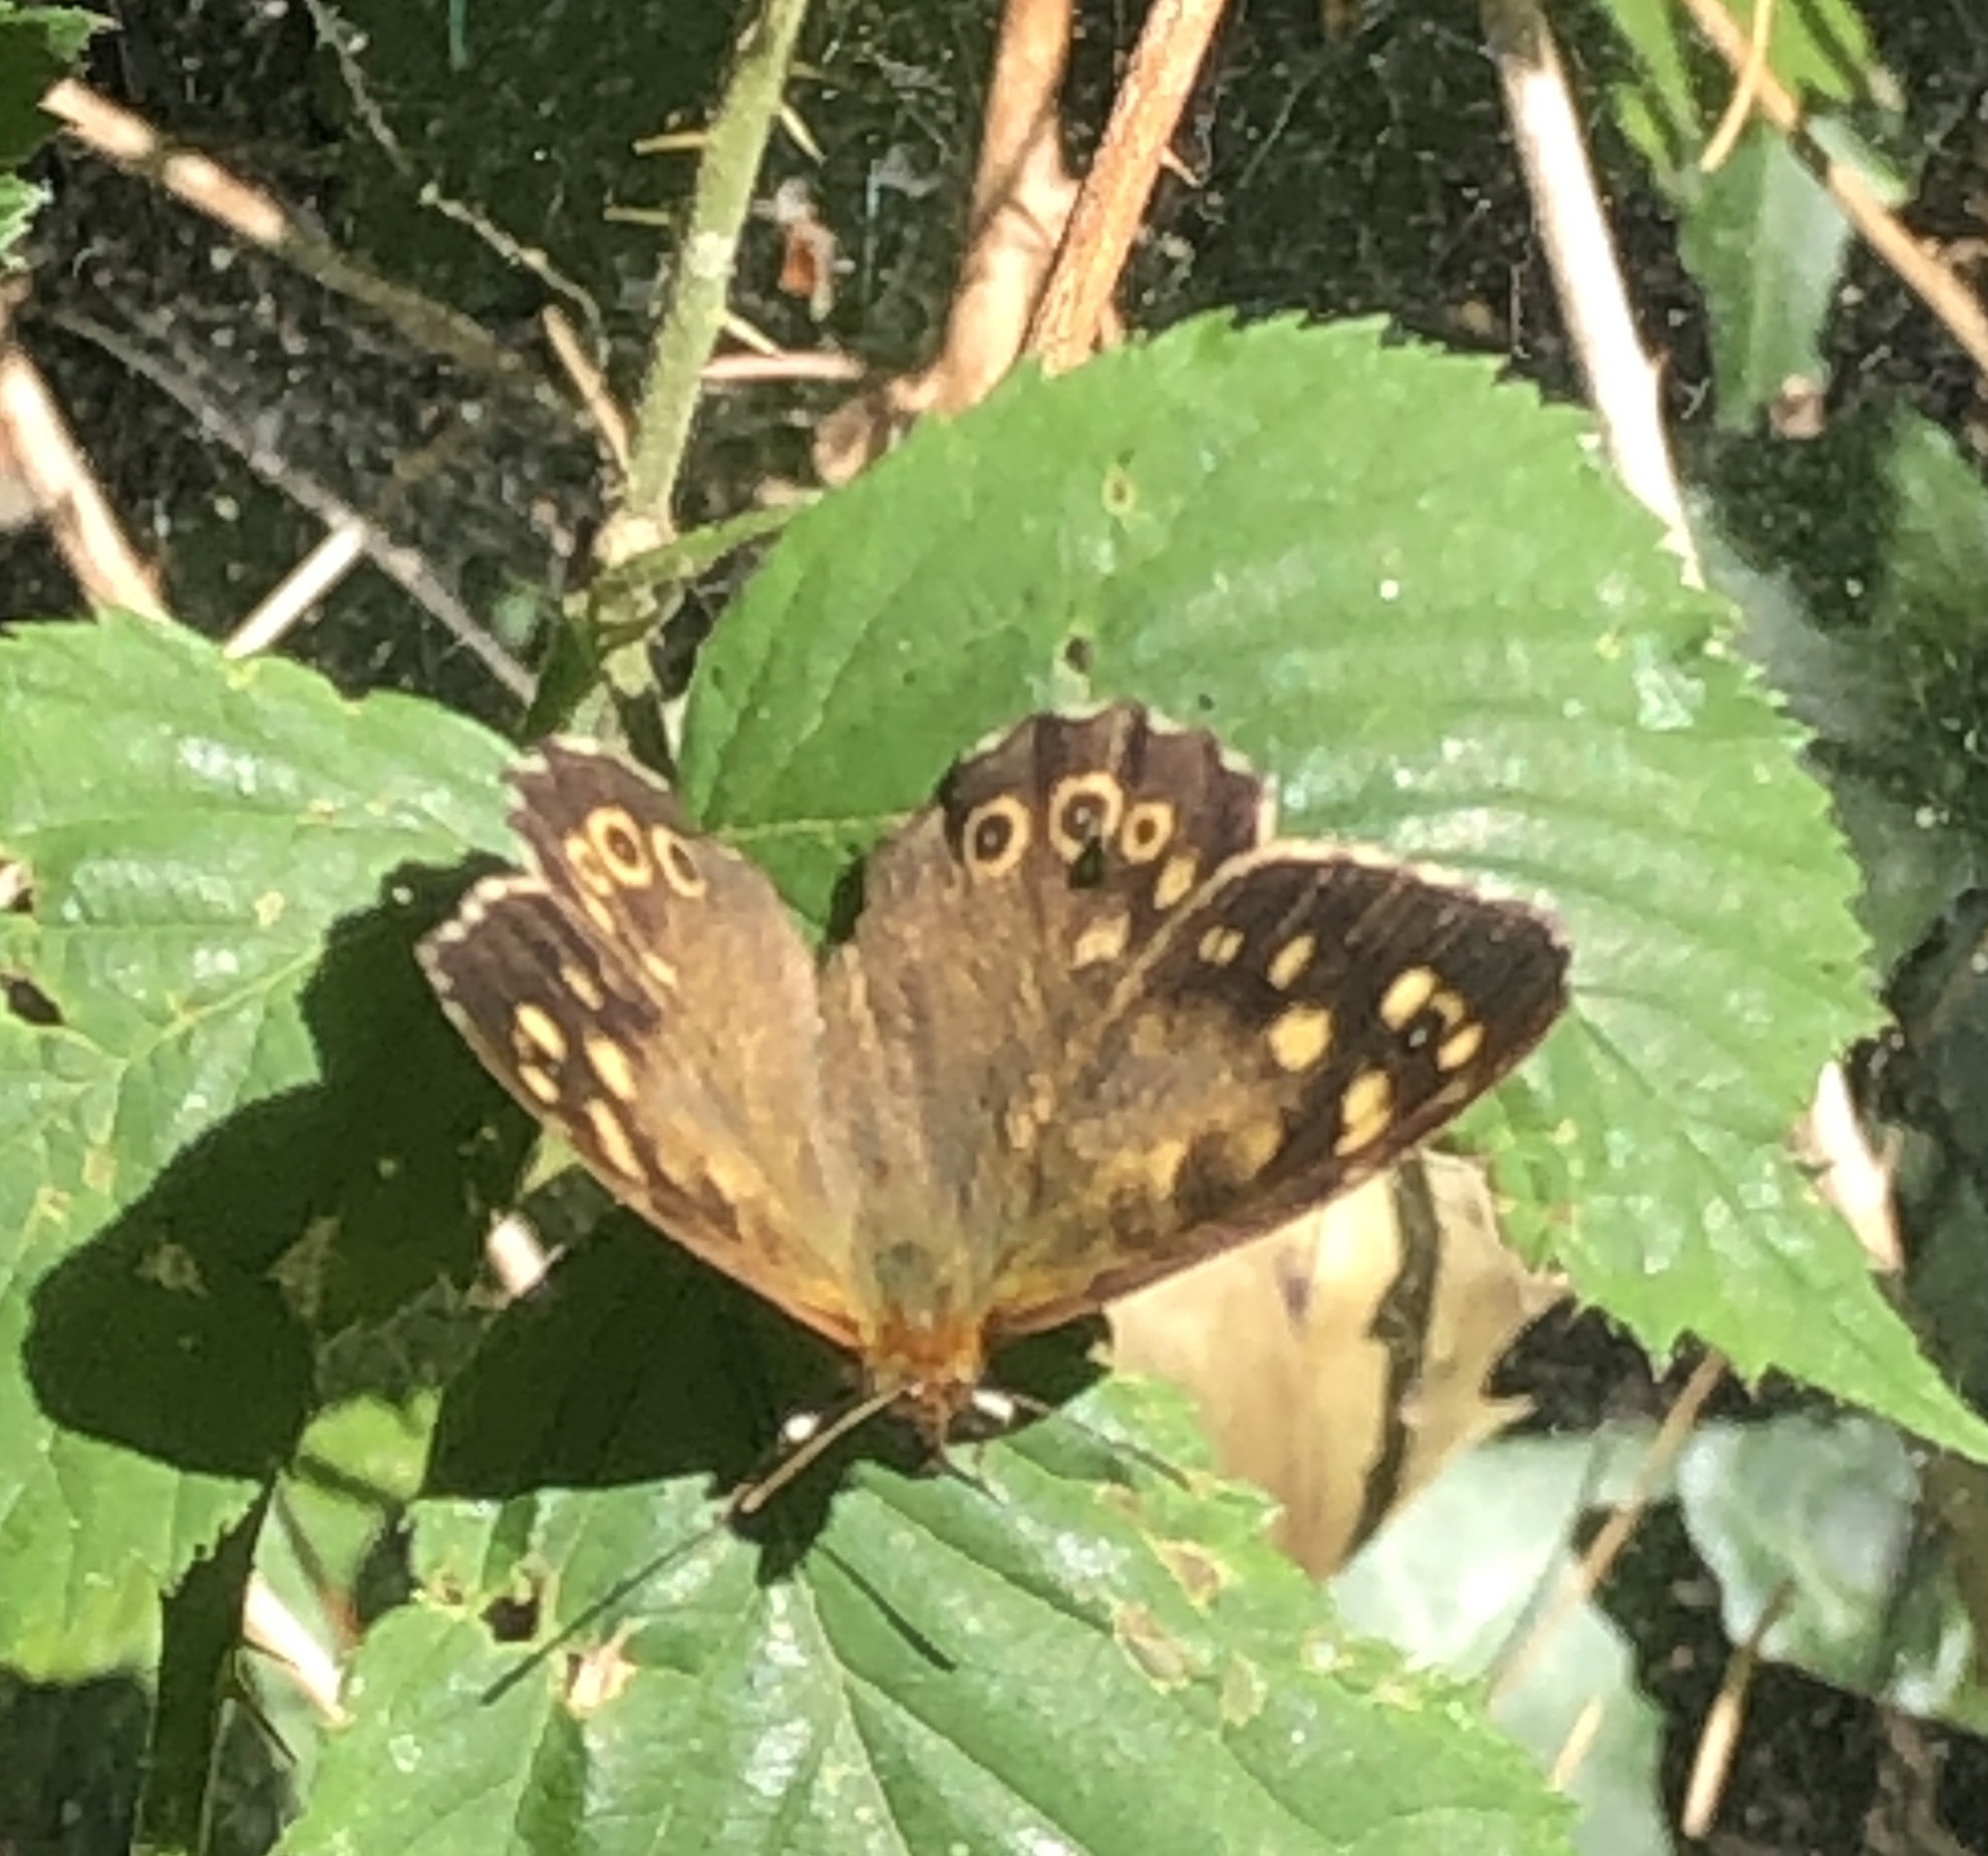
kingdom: Animalia
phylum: Arthropoda
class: Insecta
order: Lepidoptera
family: Nymphalidae
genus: Pararge
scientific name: Pararge aegeria
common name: Speckled wood
